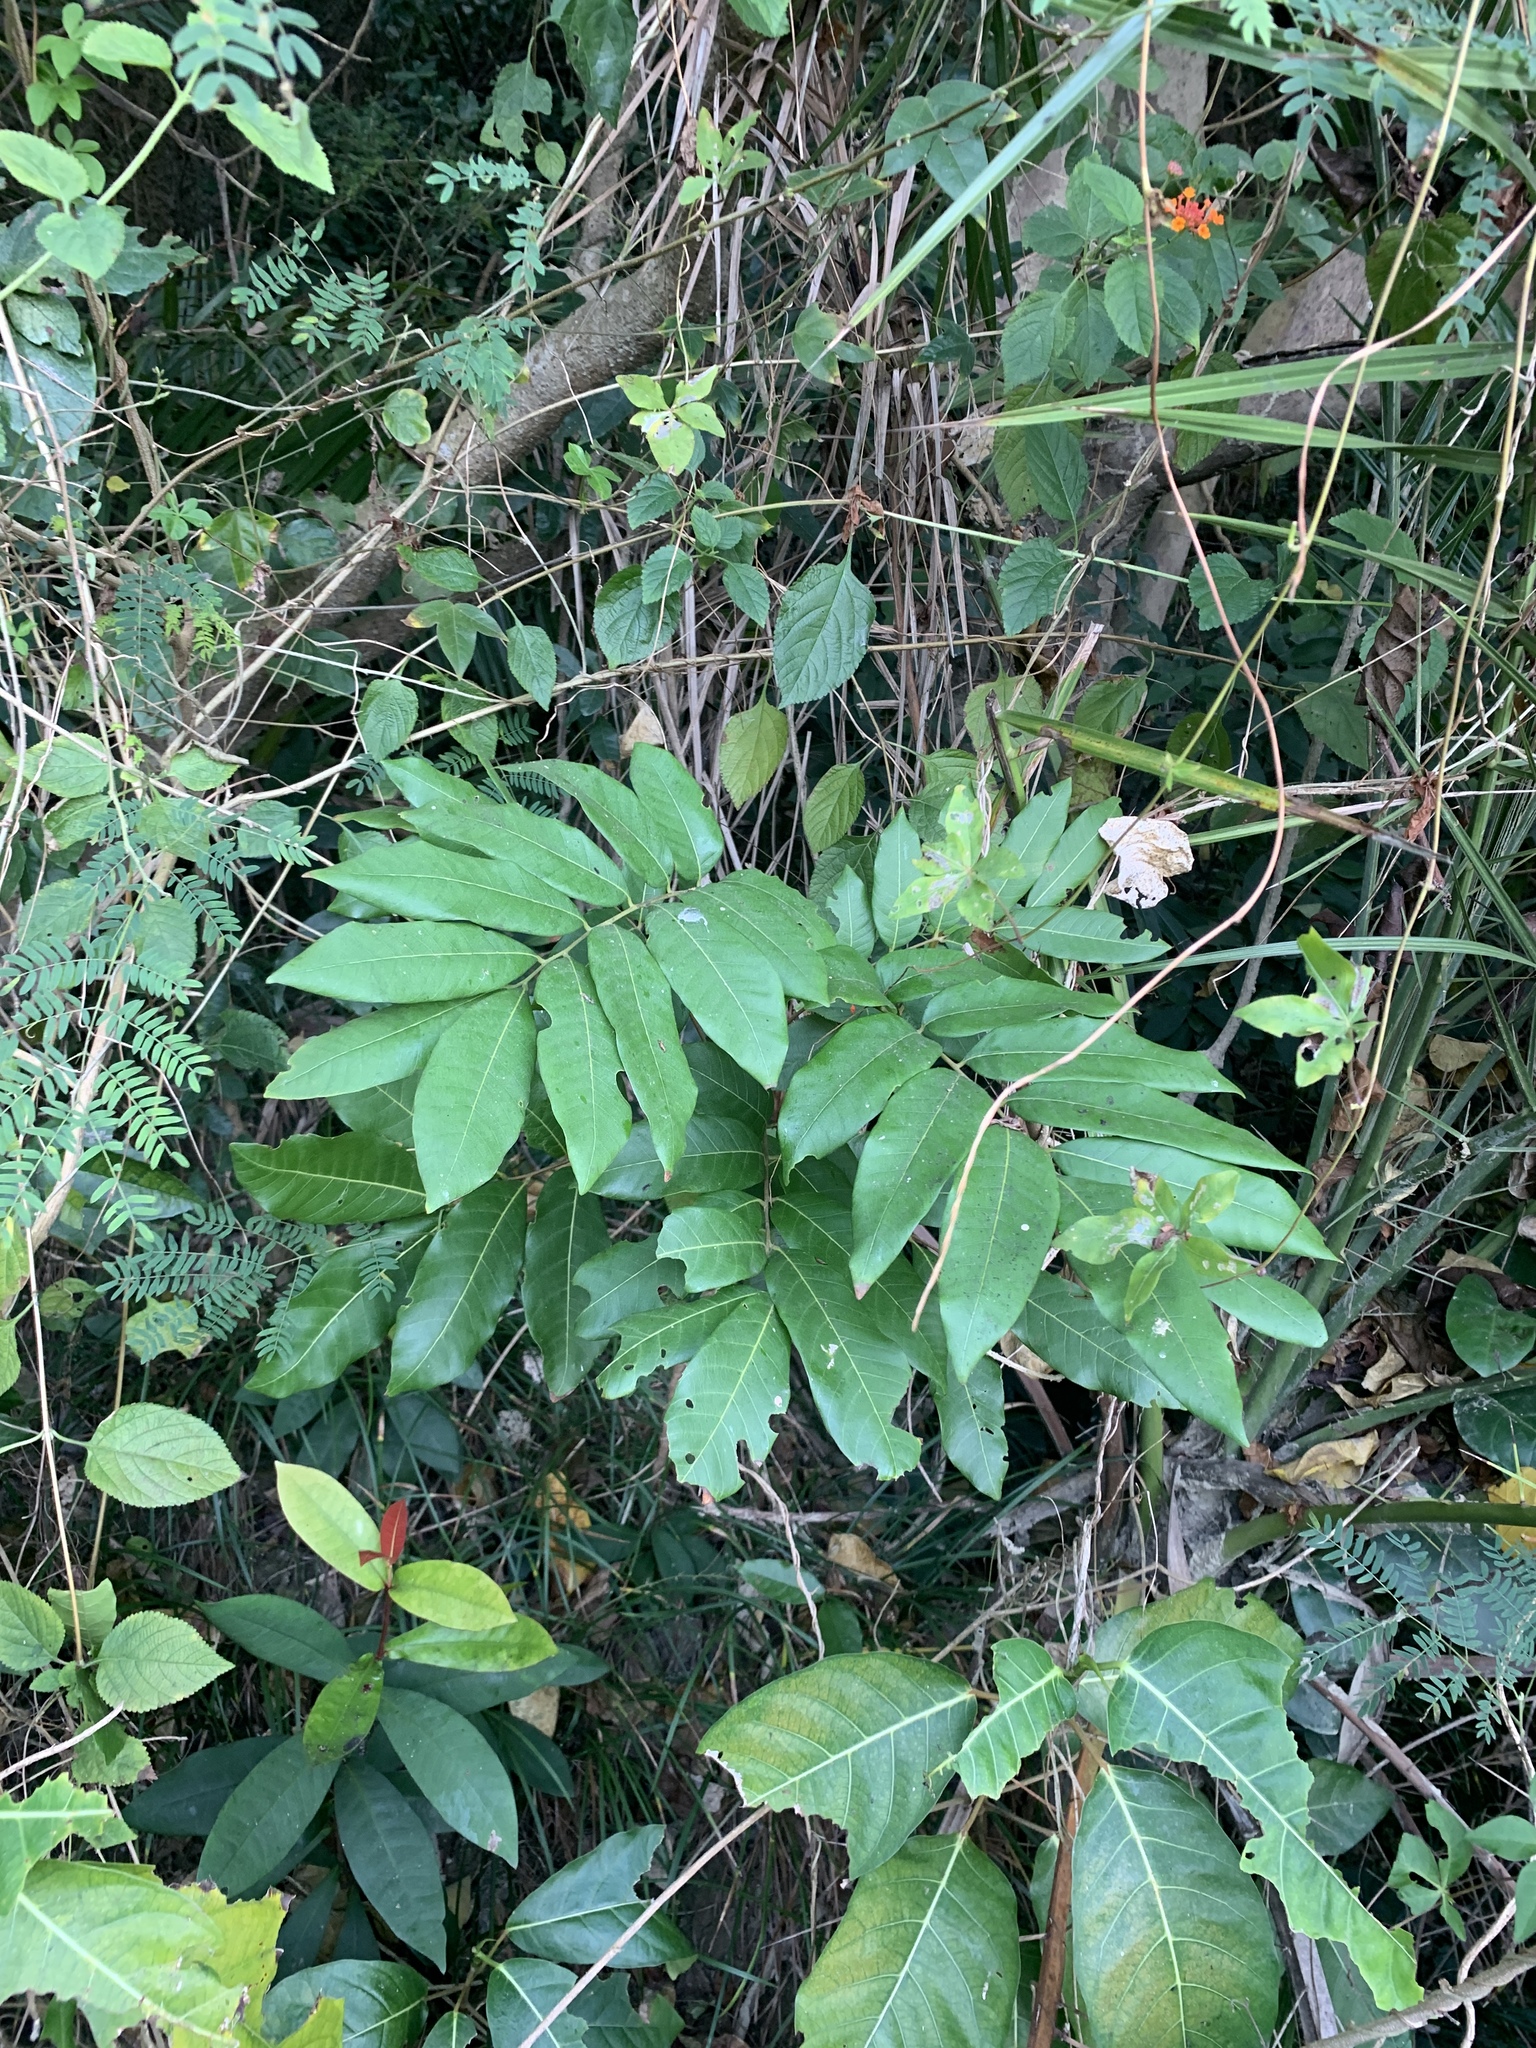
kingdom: Plantae
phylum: Tracheophyta
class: Magnoliopsida
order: Sapindales
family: Sapindaceae
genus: Dimocarpus
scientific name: Dimocarpus longan
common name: Longan
